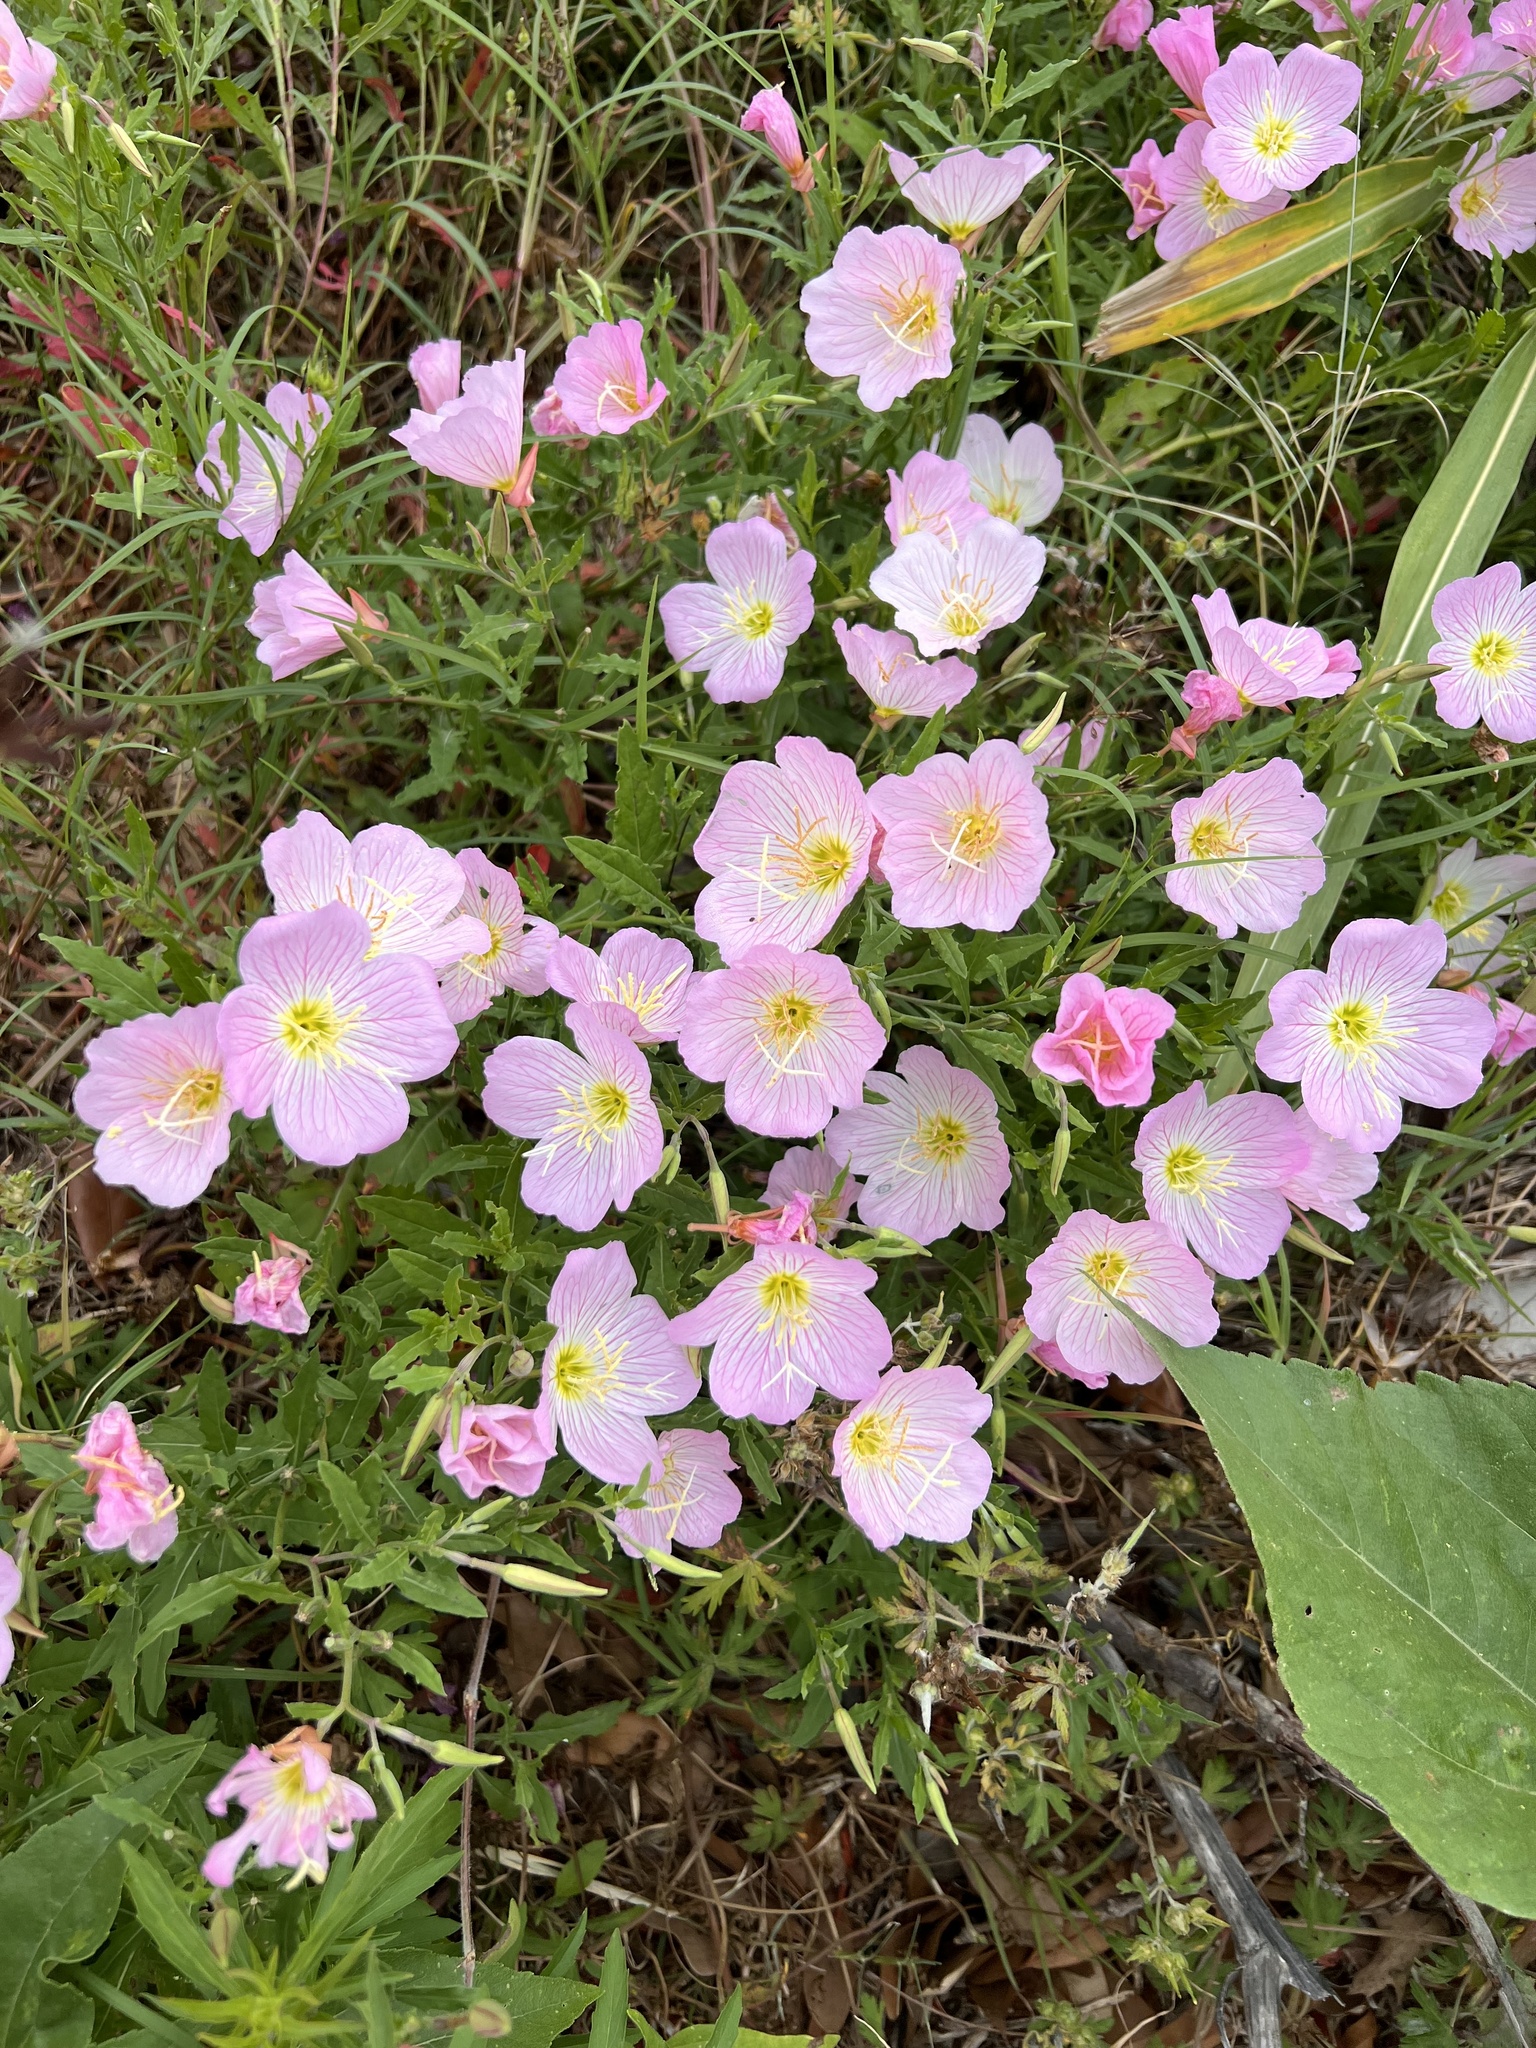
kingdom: Plantae
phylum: Tracheophyta
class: Magnoliopsida
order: Myrtales
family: Onagraceae
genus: Oenothera
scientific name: Oenothera speciosa
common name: White evening-primrose
